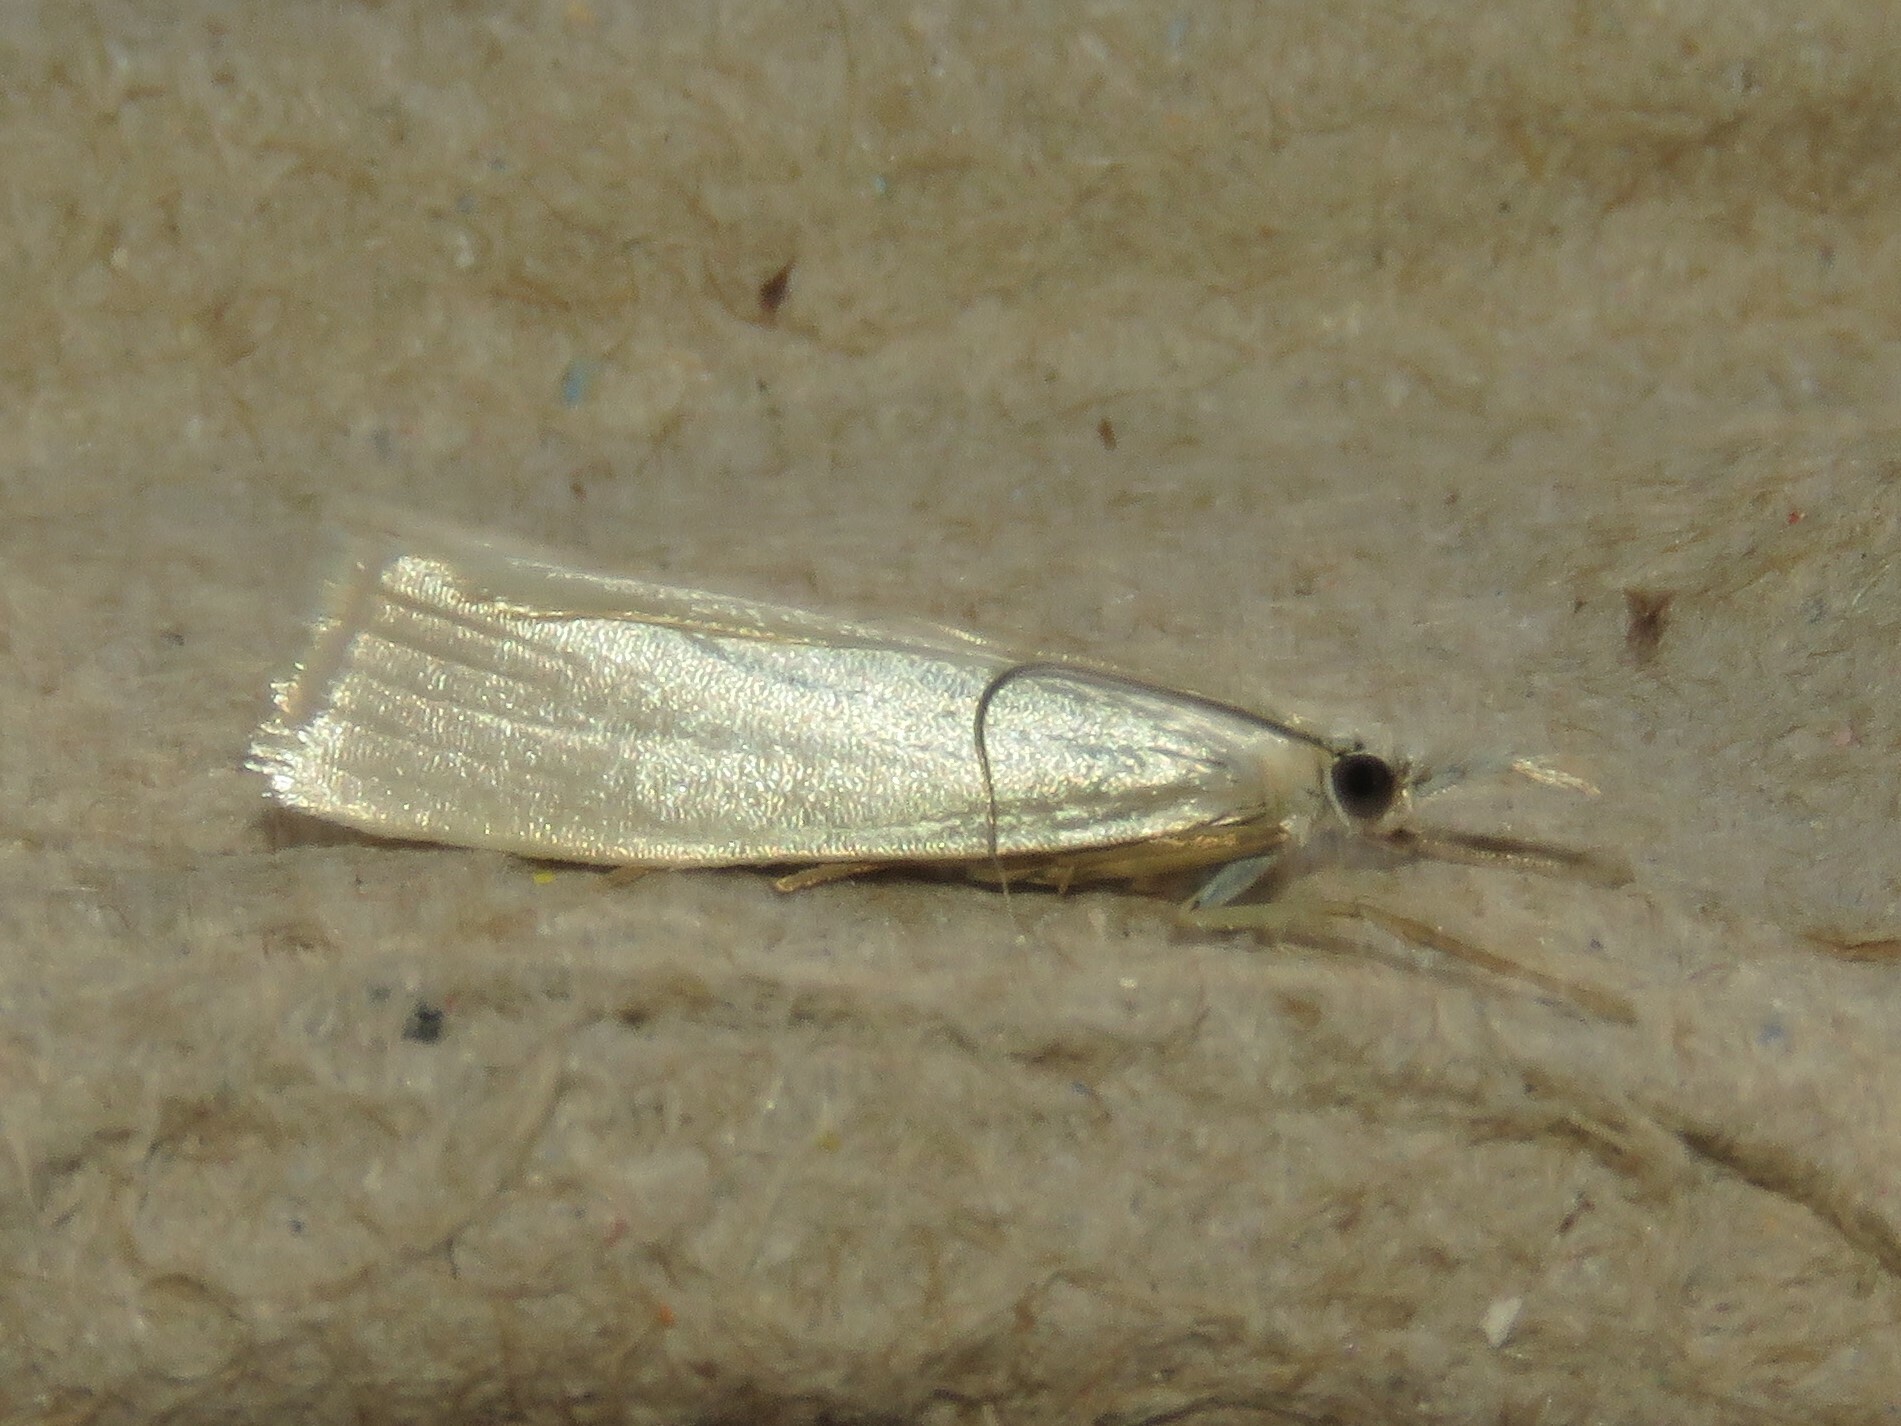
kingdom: Animalia
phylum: Arthropoda
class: Insecta
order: Lepidoptera
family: Crambidae
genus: Crambus
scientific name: Crambus perlellus
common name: Yellow satin veneer
